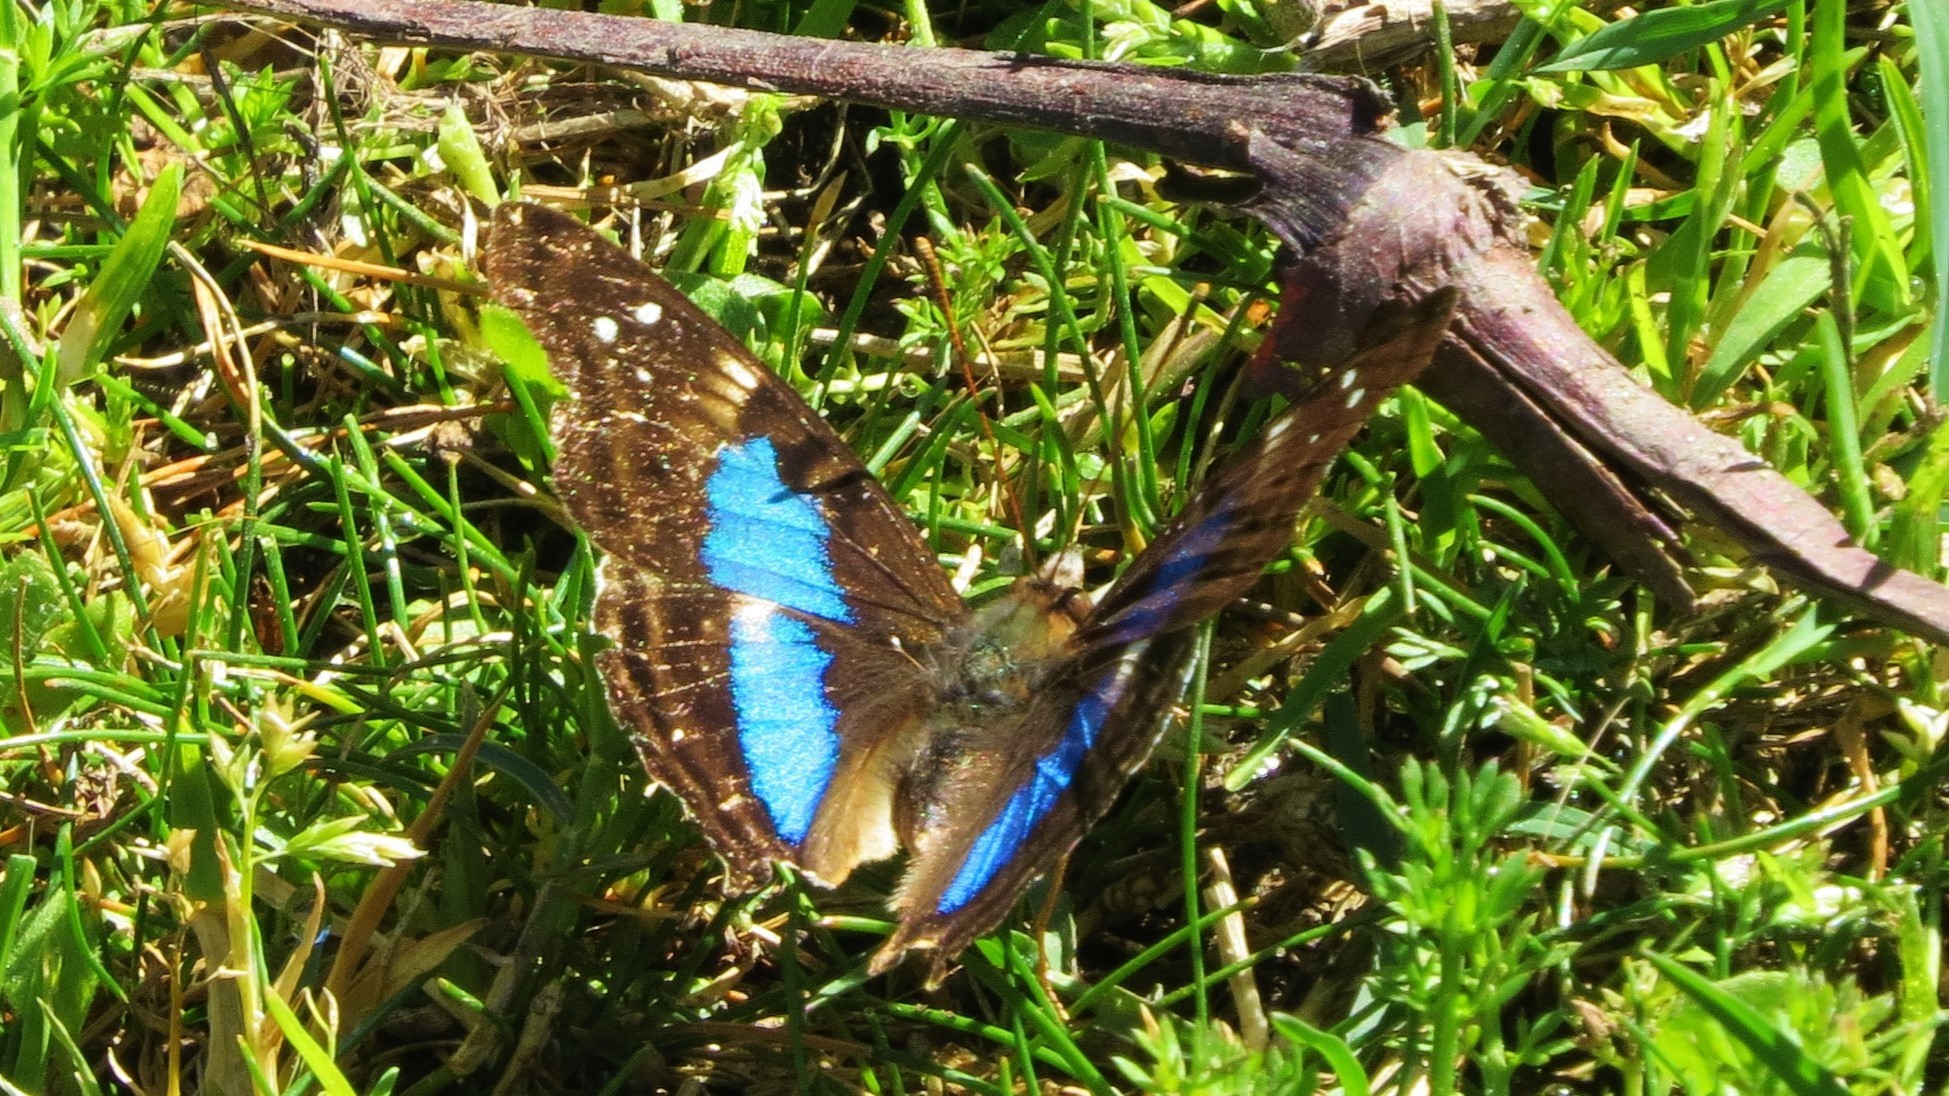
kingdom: Animalia
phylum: Arthropoda
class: Insecta
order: Lepidoptera
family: Nymphalidae
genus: Doxocopa
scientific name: Doxocopa laurentia
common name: Turquoise emperor
